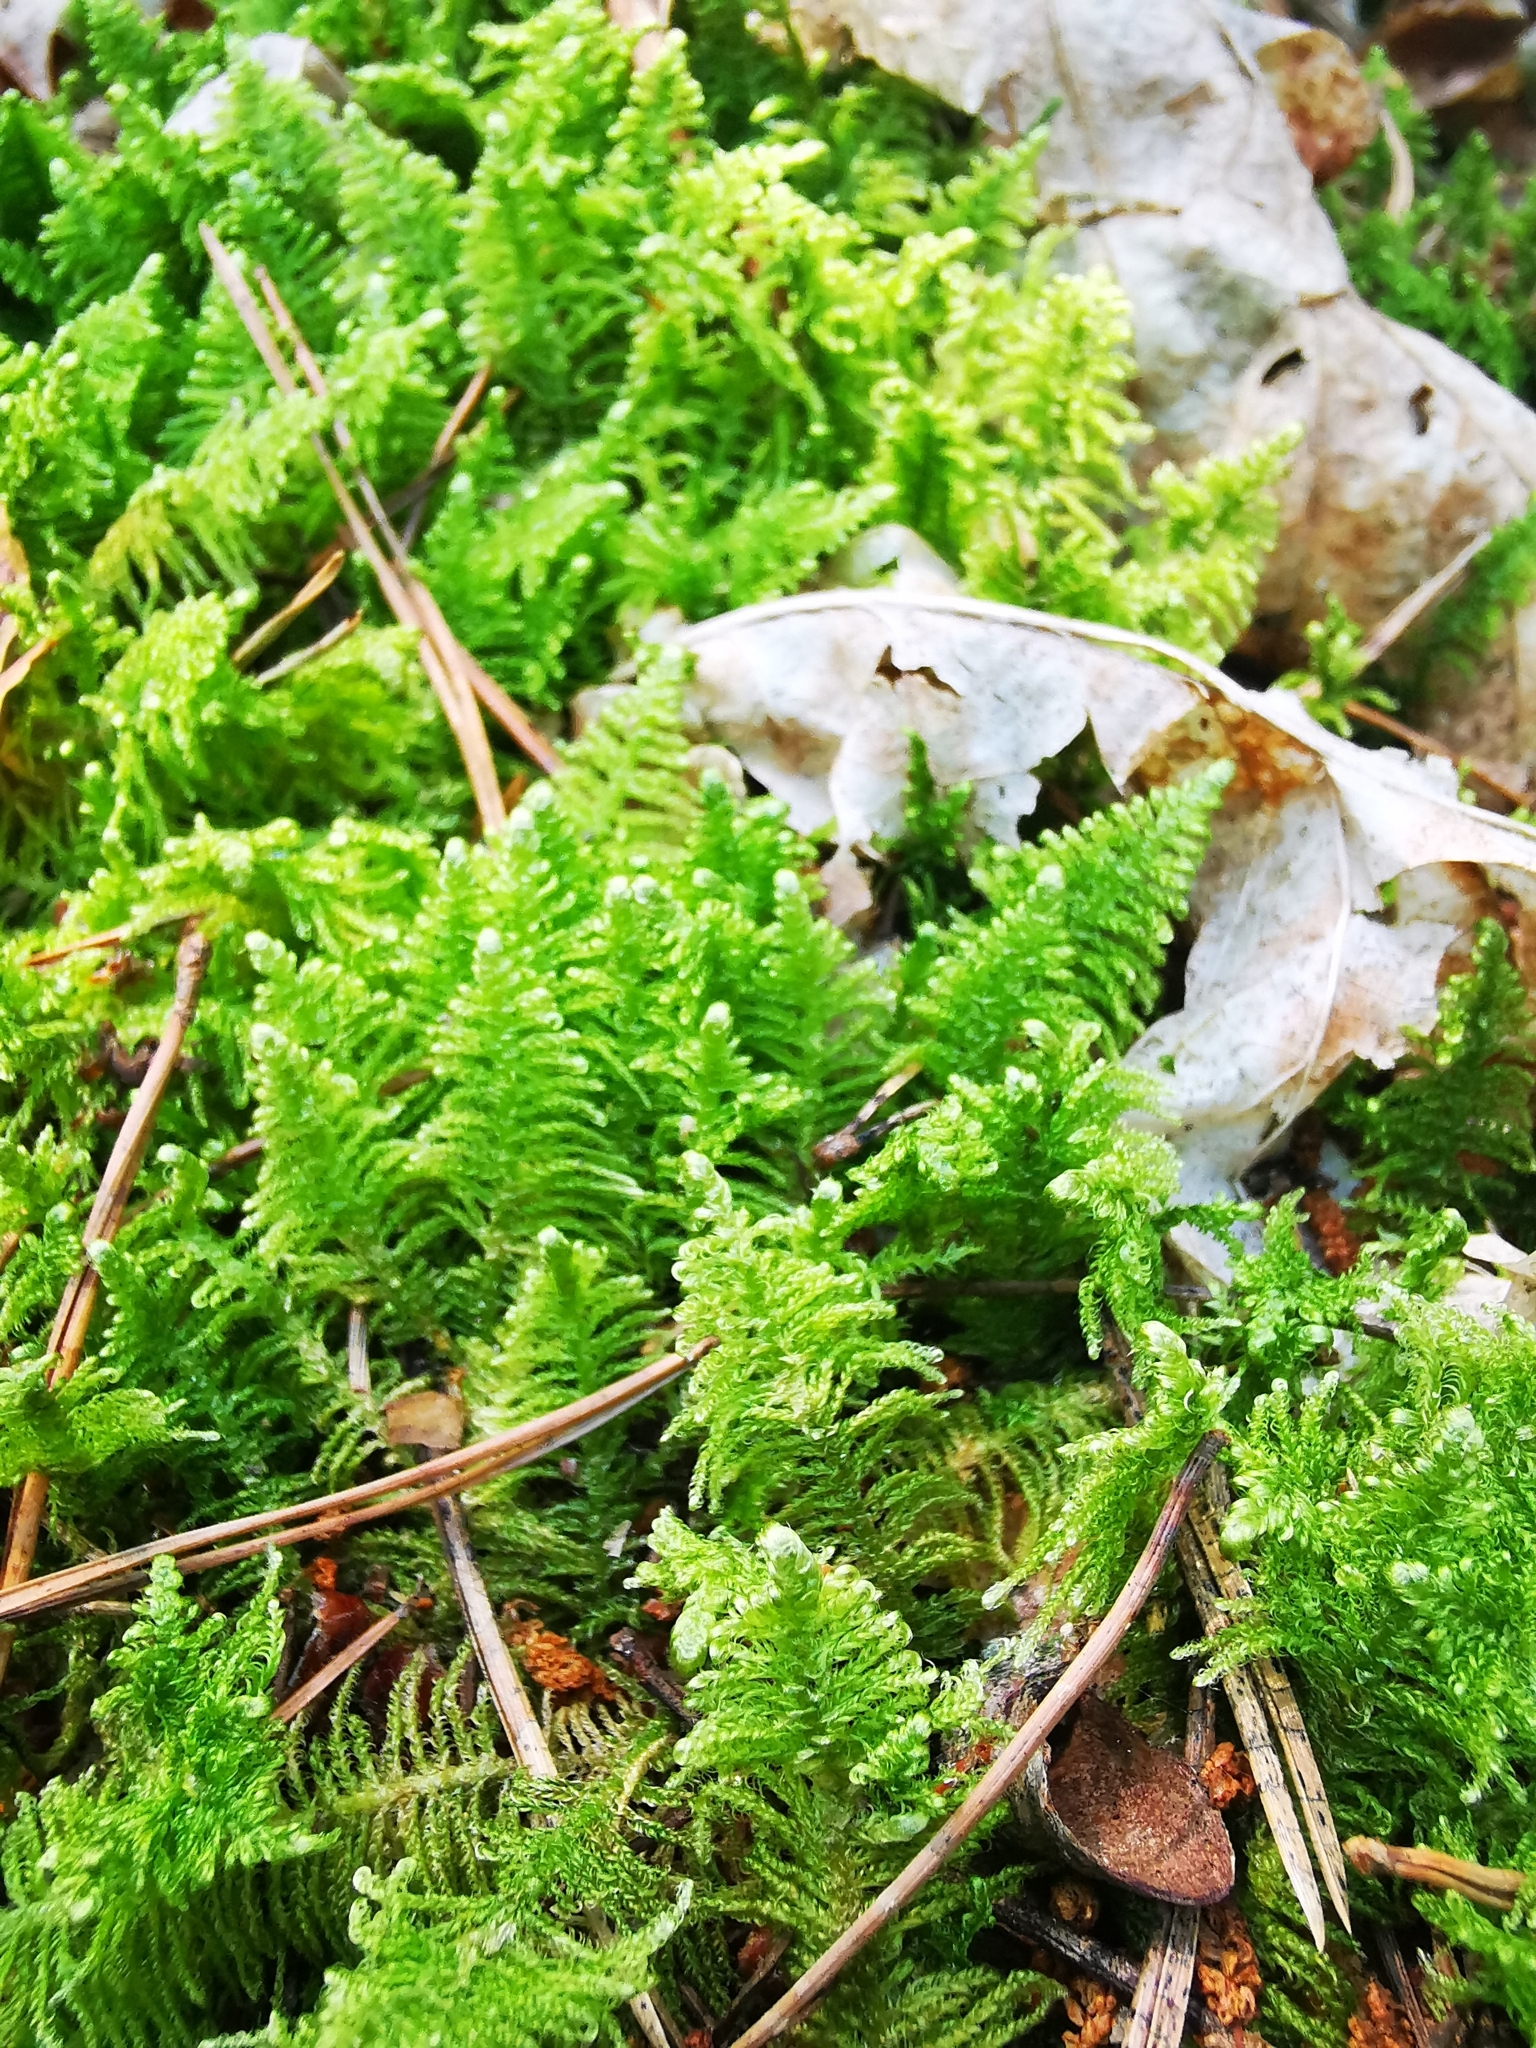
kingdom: Plantae
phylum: Bryophyta
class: Bryopsida
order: Hypnales
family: Pylaisiaceae
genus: Ptilium
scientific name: Ptilium crista-castrensis
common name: Knight's plume moss
